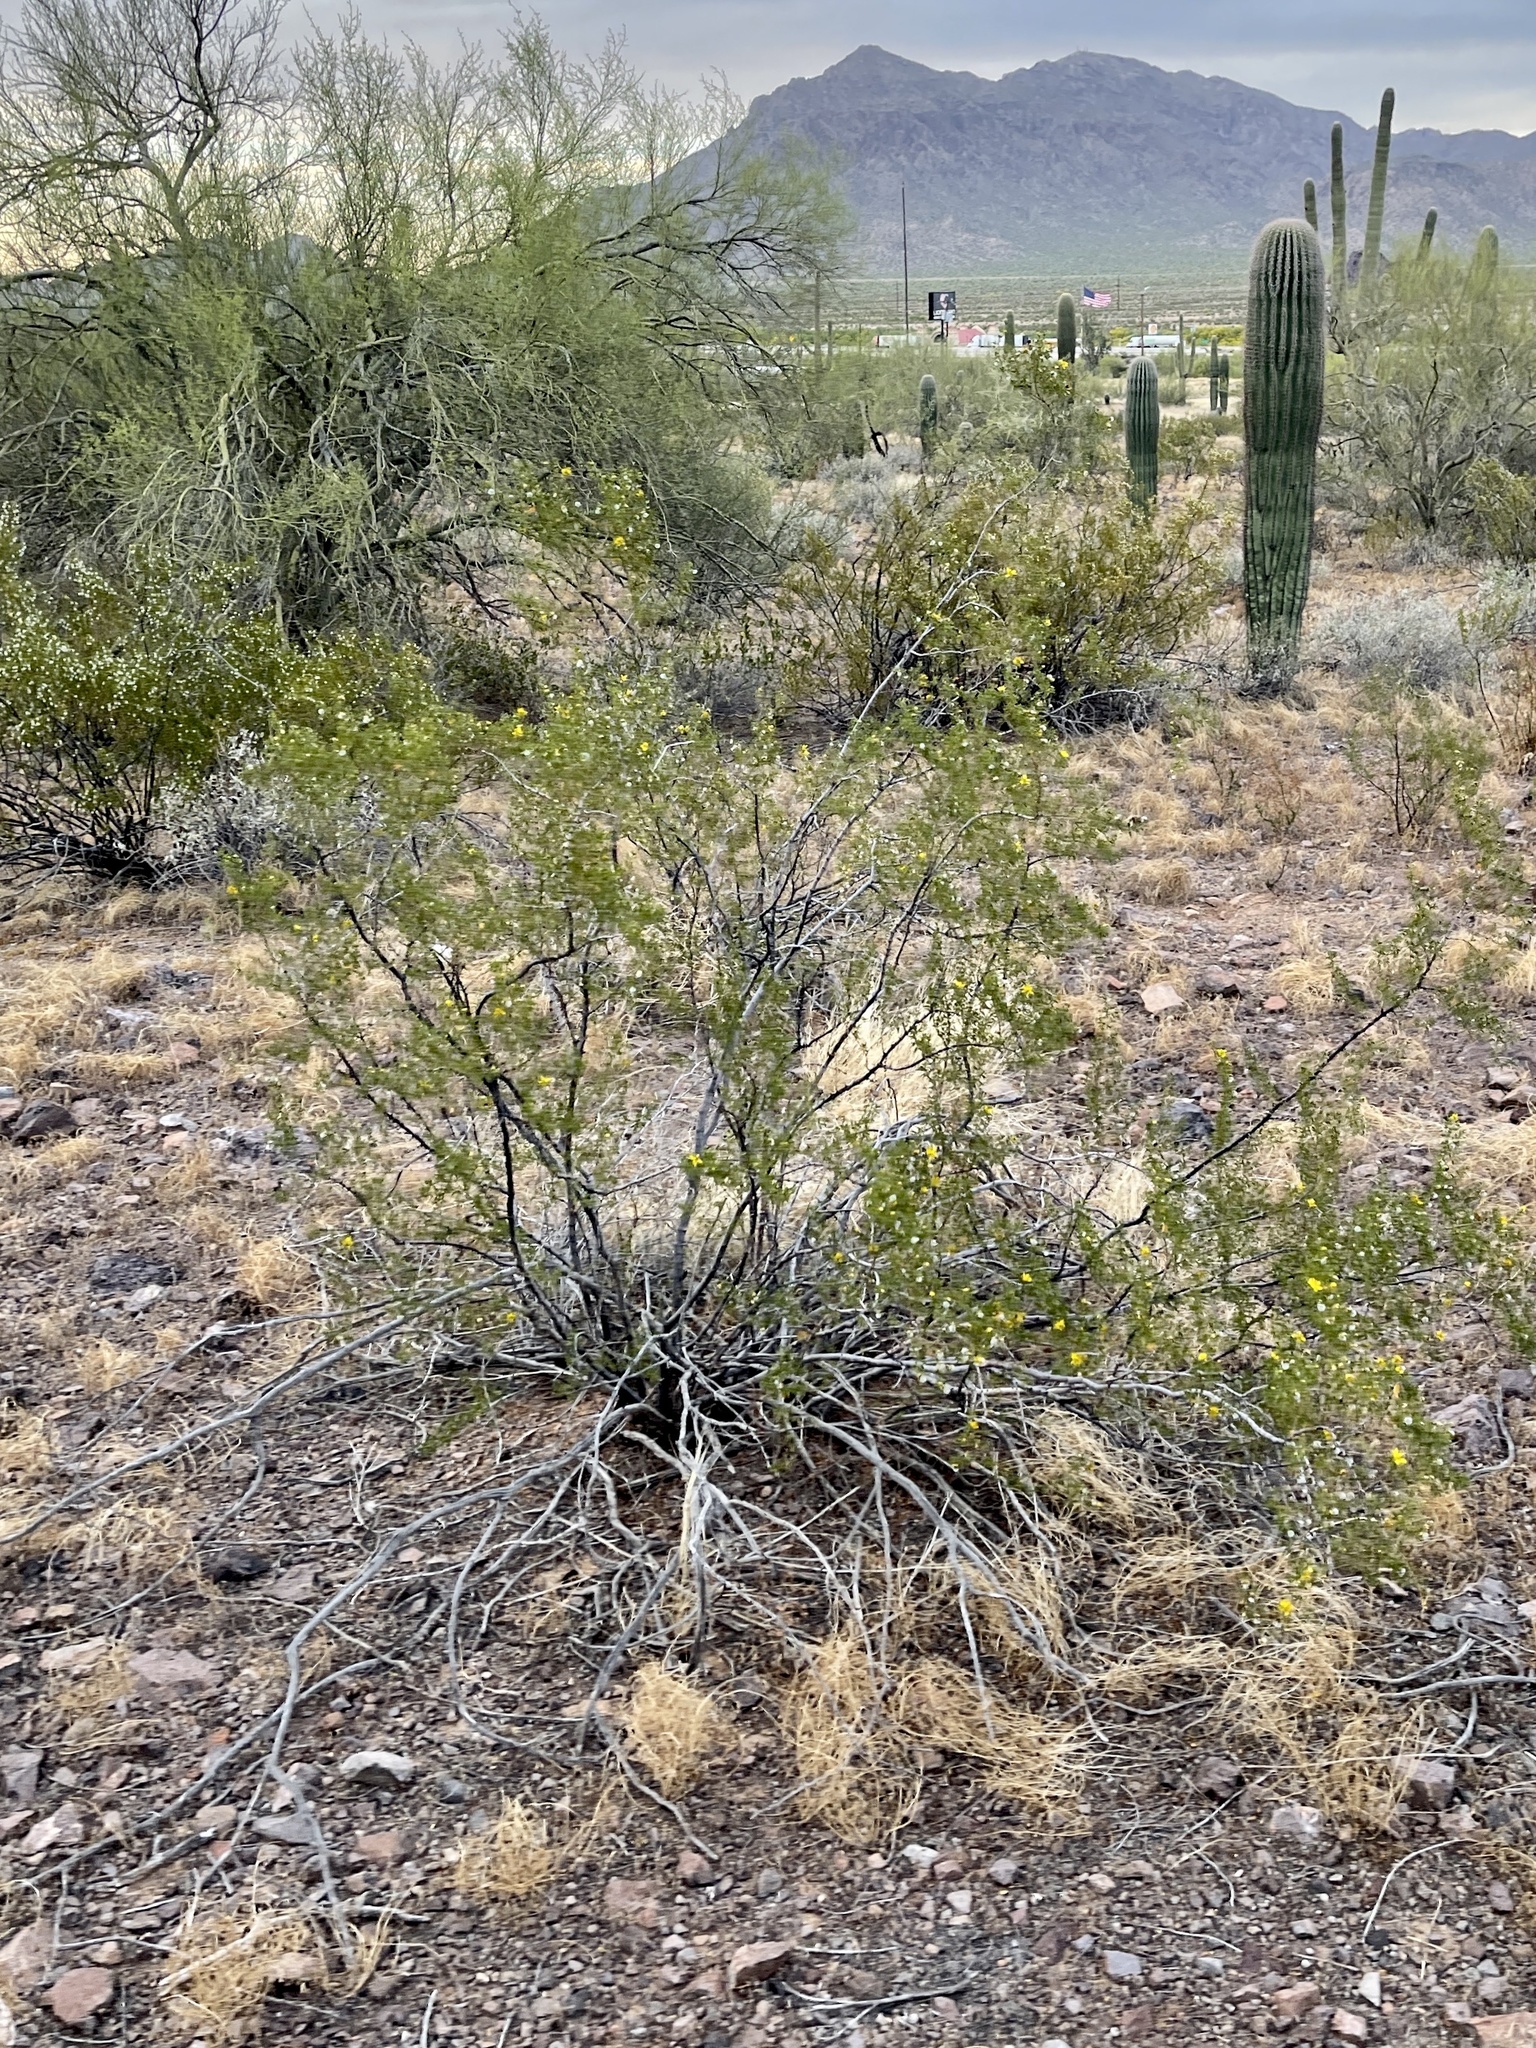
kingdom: Plantae
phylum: Tracheophyta
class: Magnoliopsida
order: Zygophyllales
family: Zygophyllaceae
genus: Larrea
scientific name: Larrea tridentata
